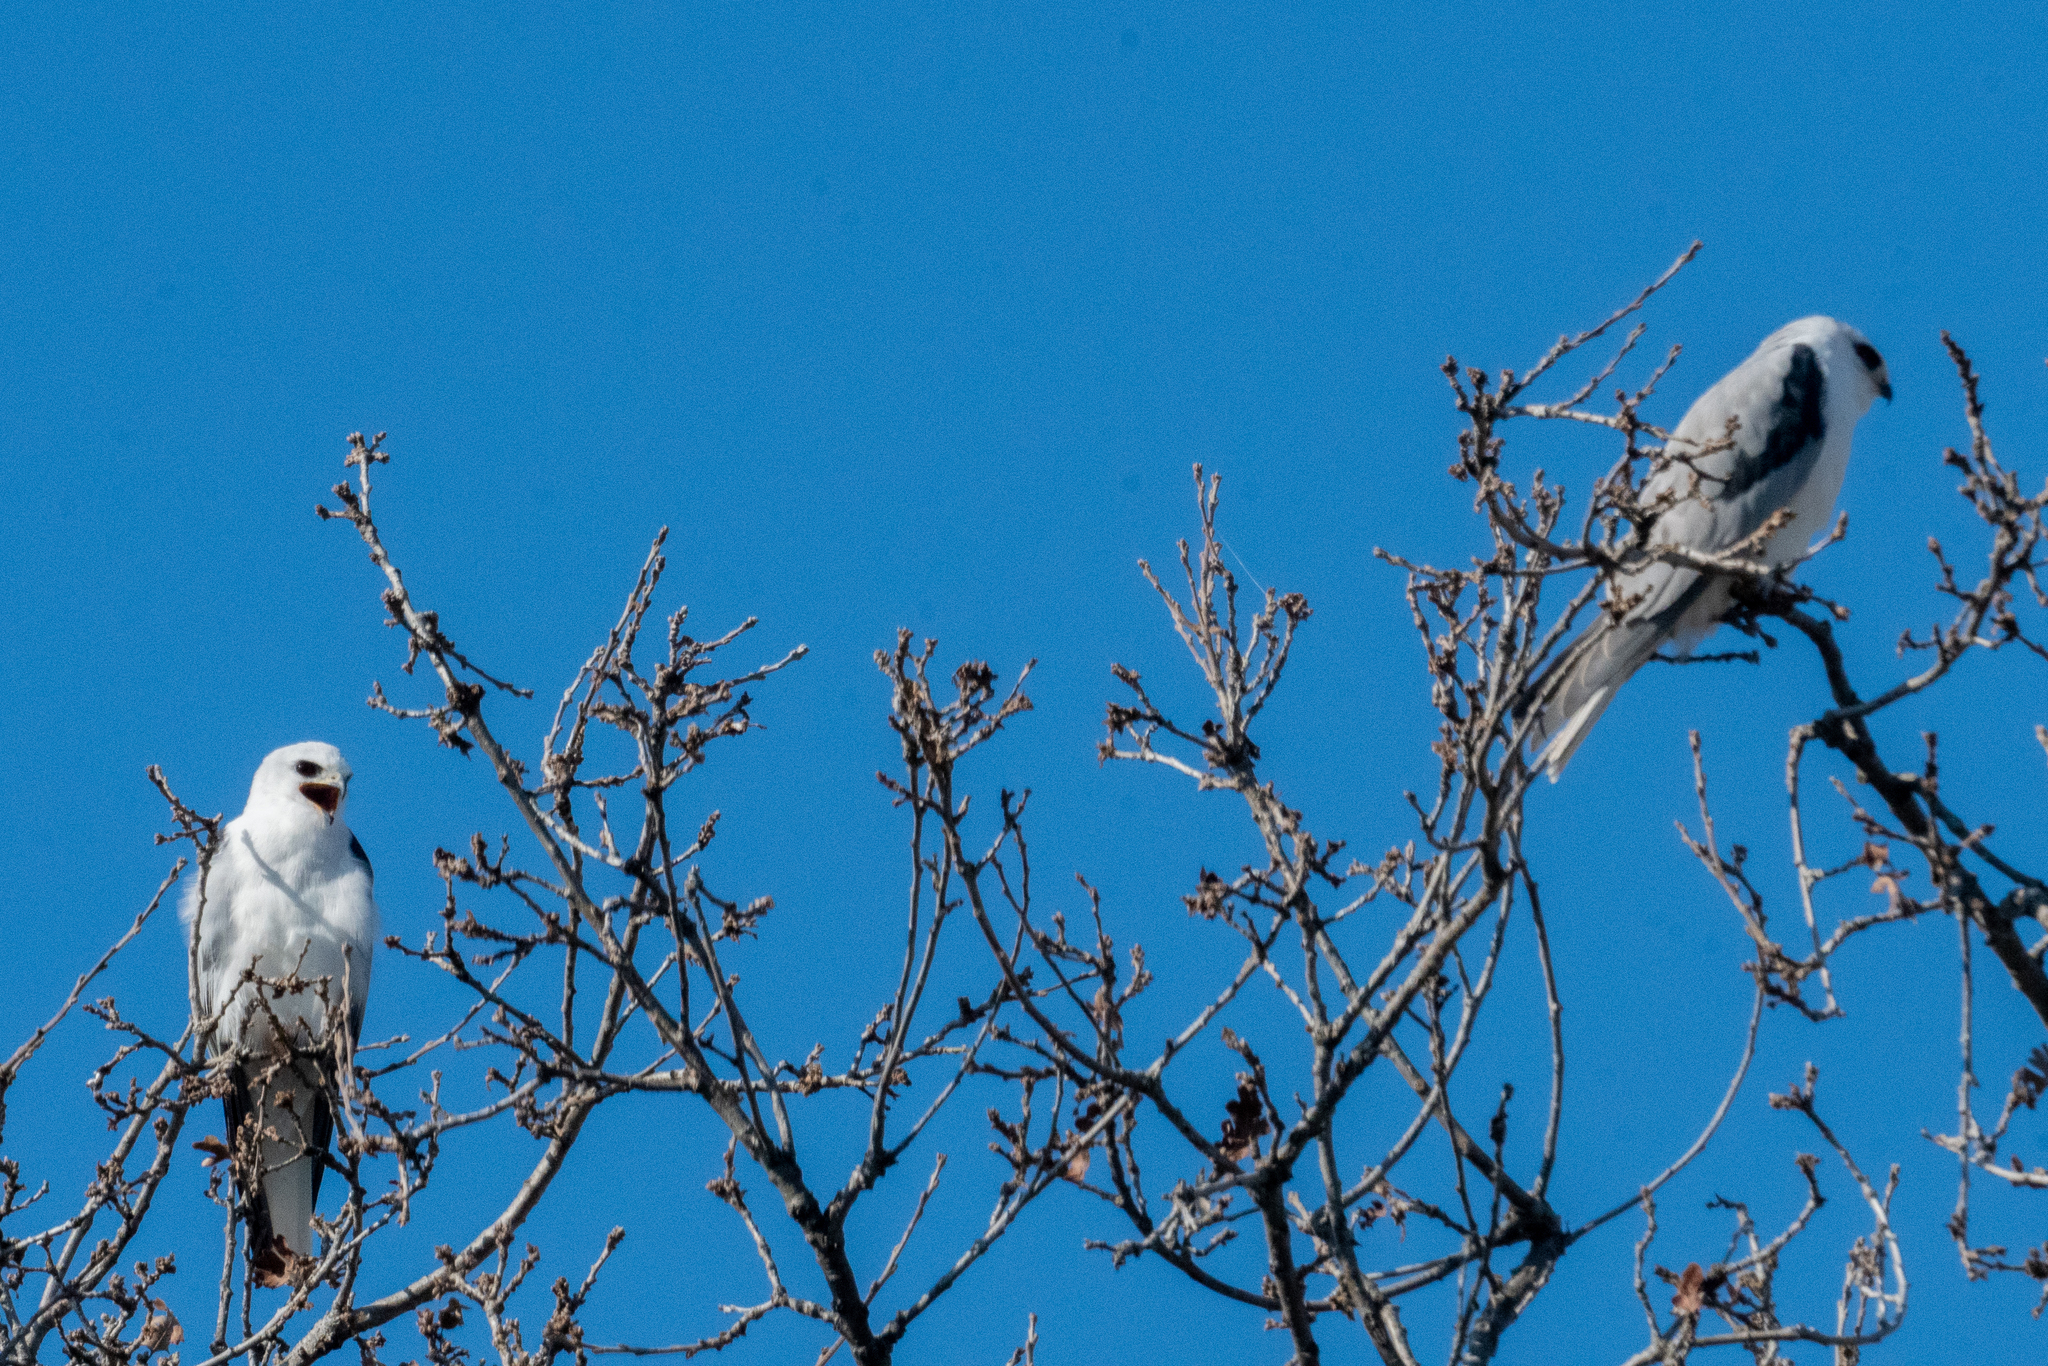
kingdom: Animalia
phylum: Chordata
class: Aves
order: Accipitriformes
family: Accipitridae
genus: Elanus
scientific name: Elanus leucurus
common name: White-tailed kite
